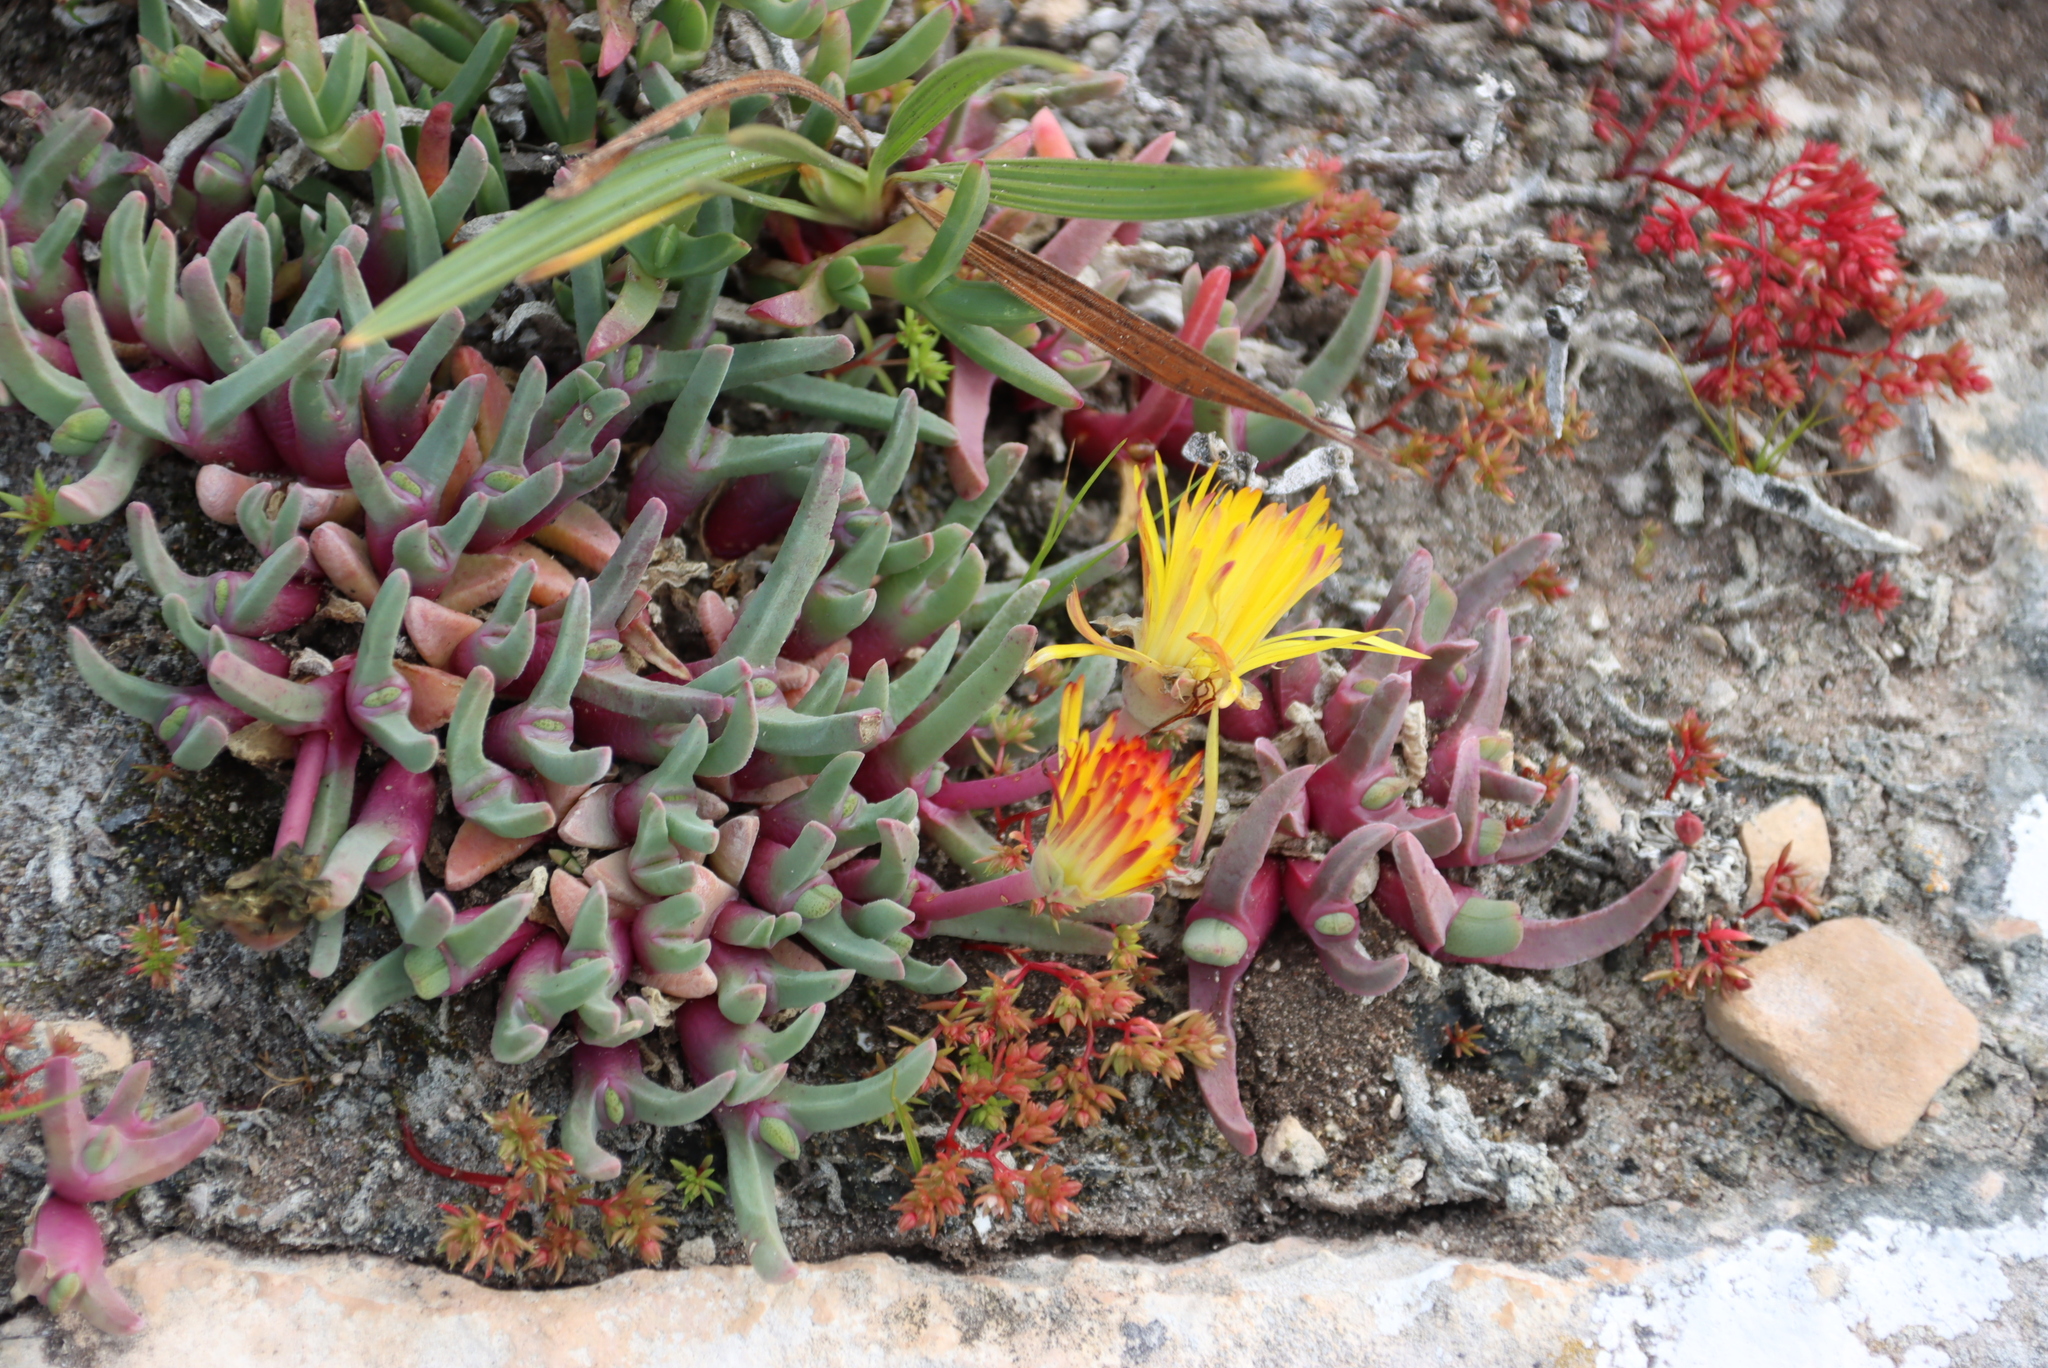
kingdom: Plantae
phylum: Tracheophyta
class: Magnoliopsida
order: Caryophyllales
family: Aizoaceae
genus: Cheiridopsis
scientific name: Cheiridopsis rostrata
